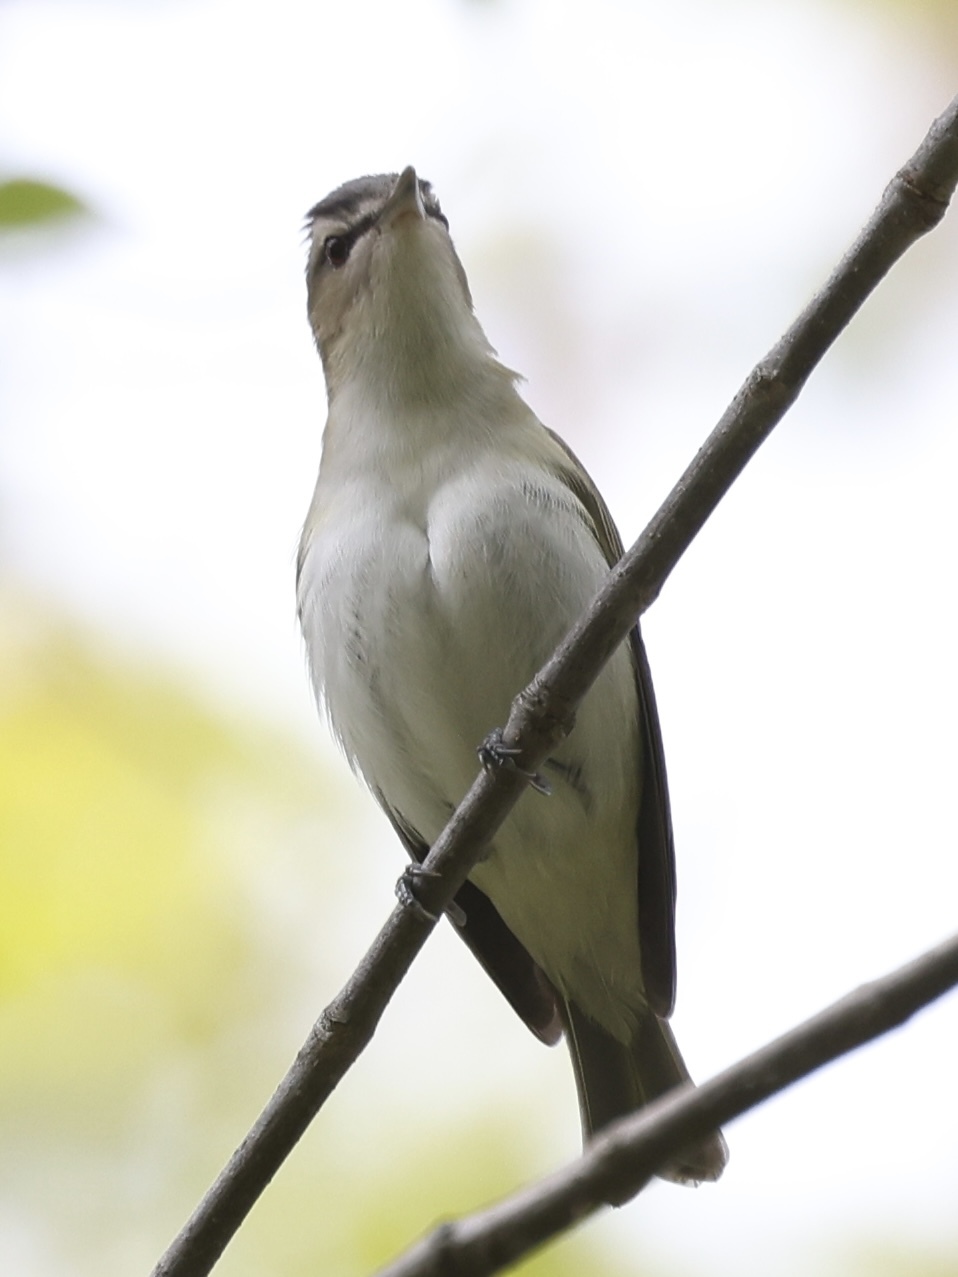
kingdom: Animalia
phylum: Chordata
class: Aves
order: Passeriformes
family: Vireonidae
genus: Vireo
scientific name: Vireo olivaceus
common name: Red-eyed vireo
